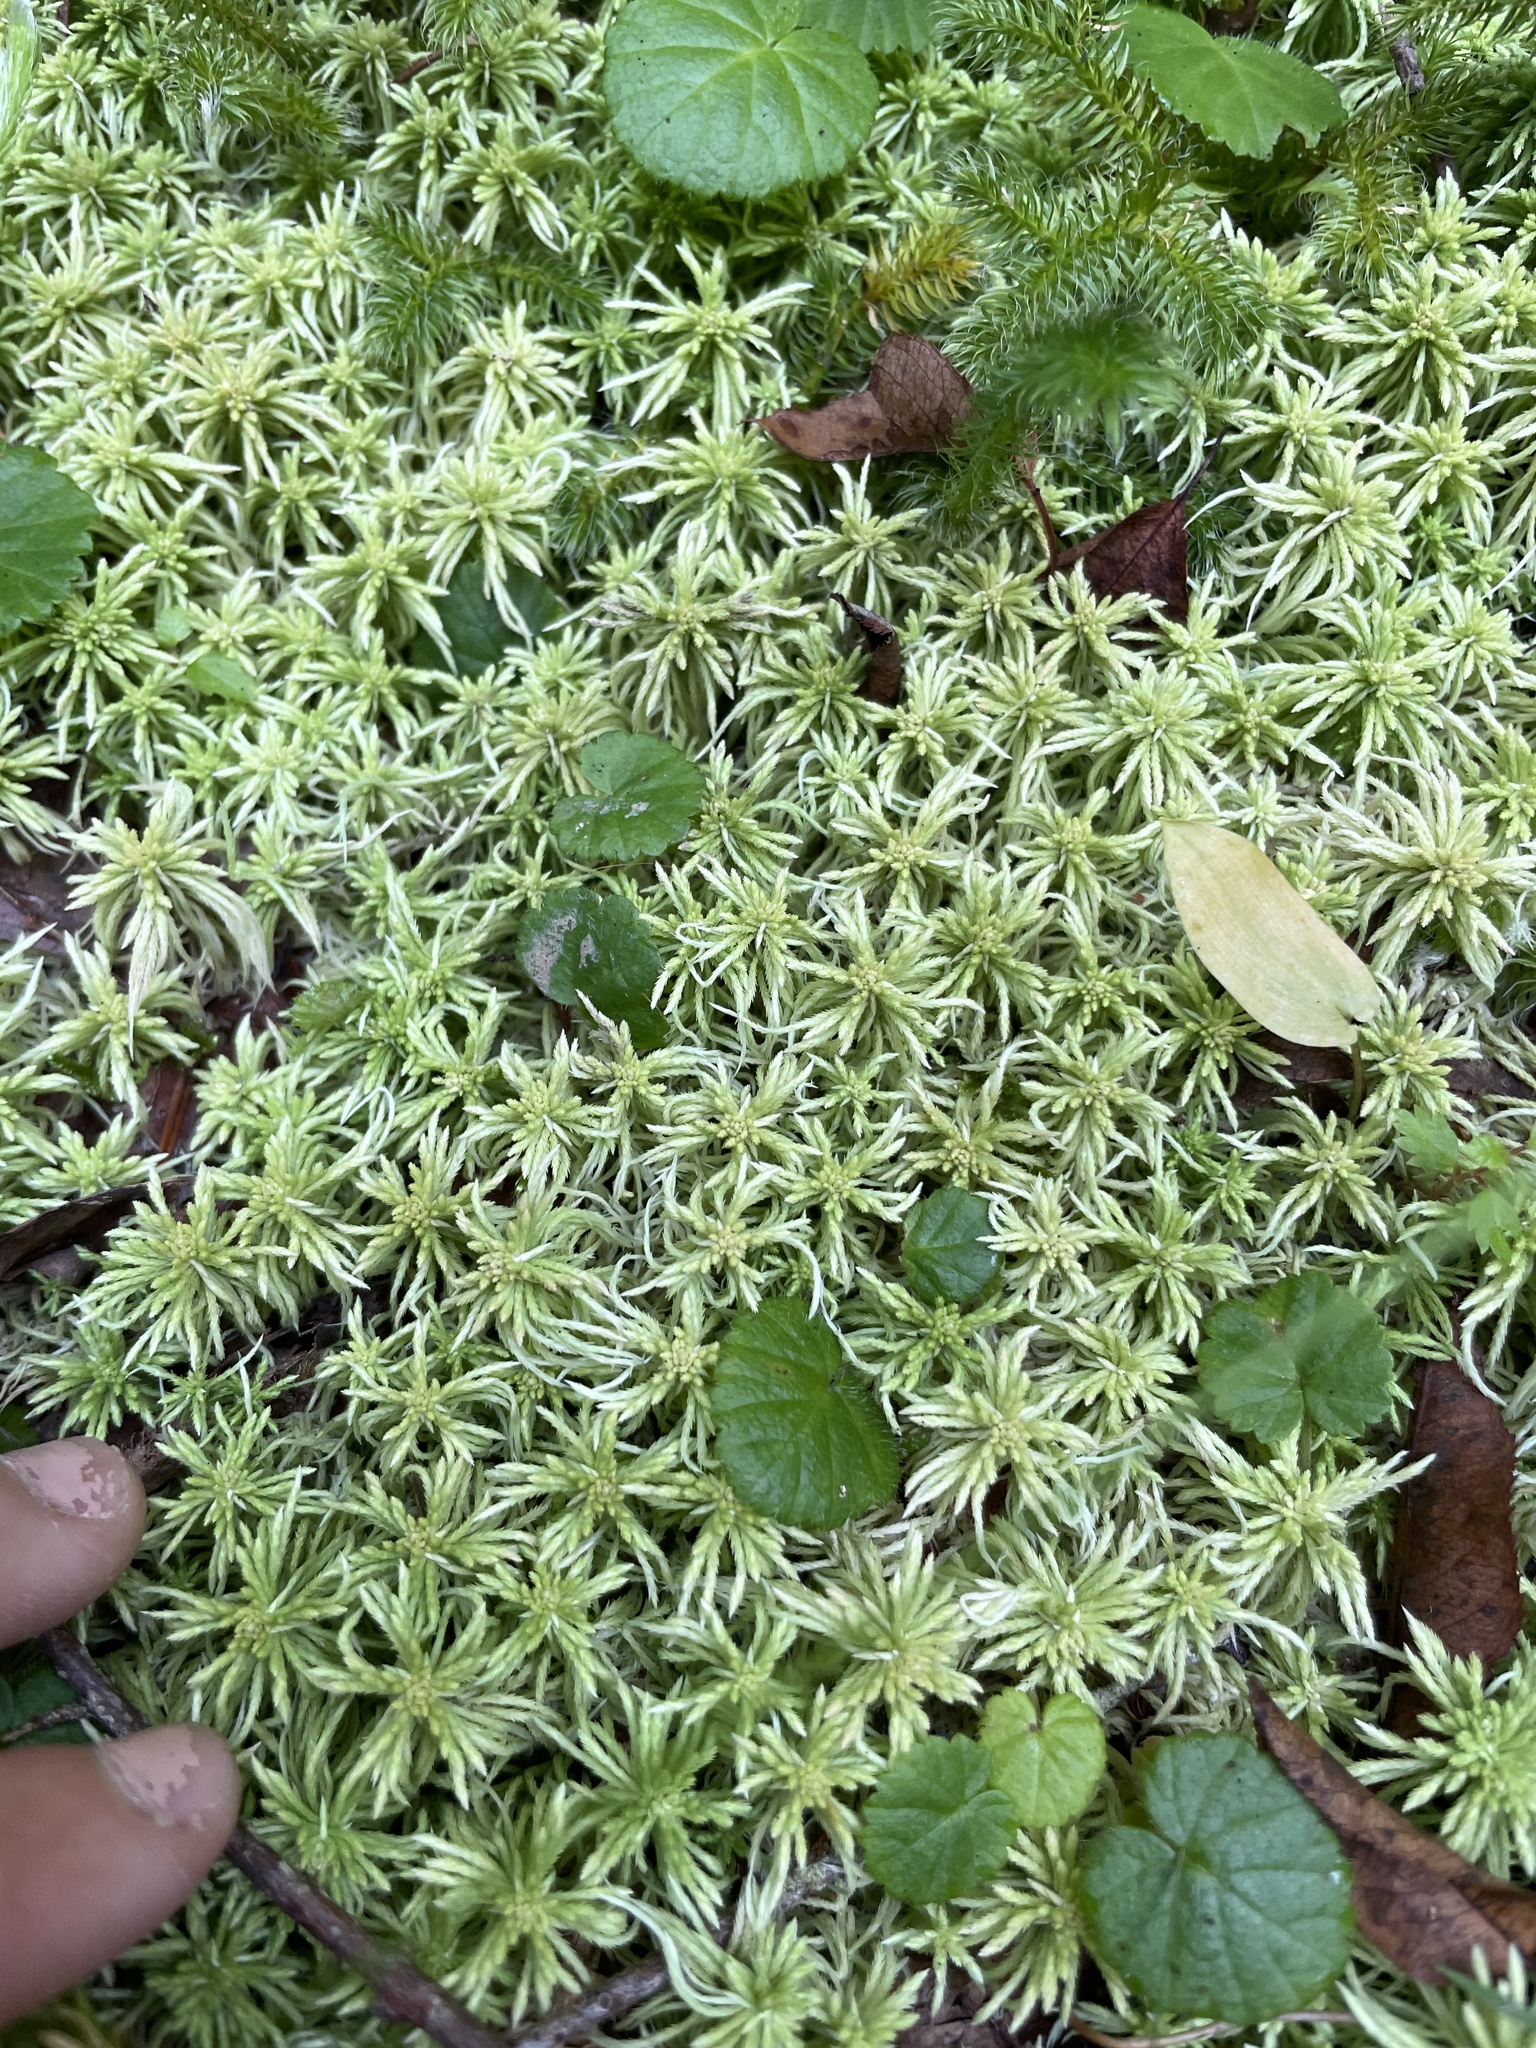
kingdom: Plantae
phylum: Bryophyta
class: Sphagnopsida
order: Sphagnales
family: Sphagnaceae
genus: Sphagnum
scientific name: Sphagnum girgensohnii
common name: Girgensohn's peat moss
